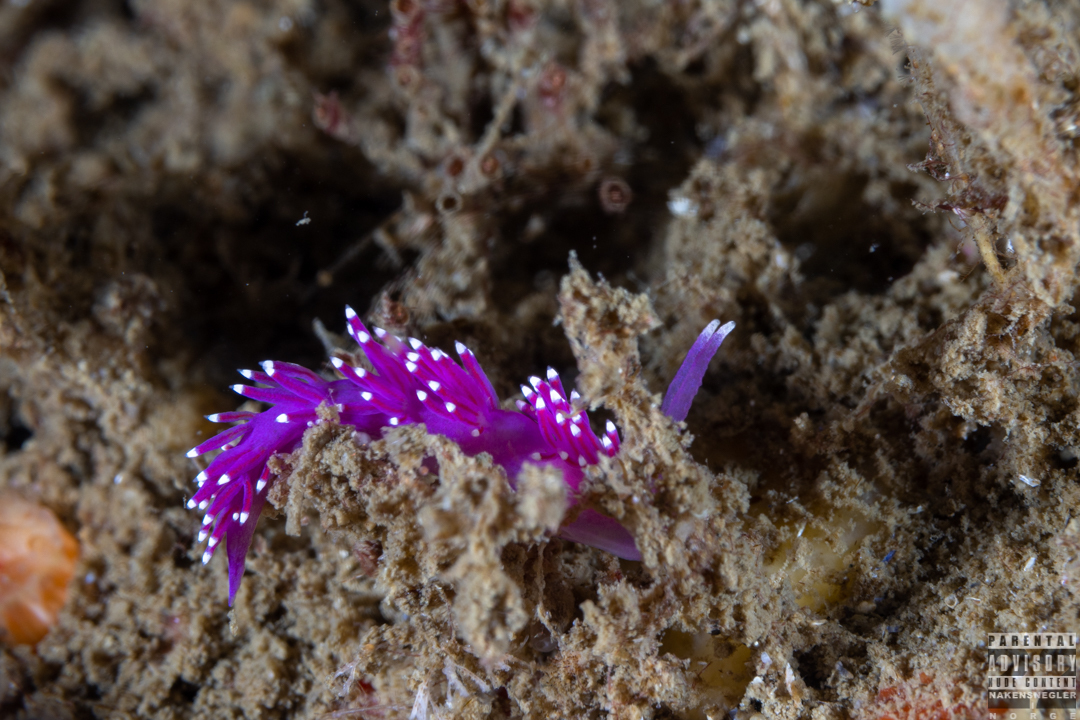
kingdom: Animalia
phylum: Mollusca
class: Gastropoda
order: Nudibranchia
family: Flabellinidae
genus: Edmundsella
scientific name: Edmundsella pedata
